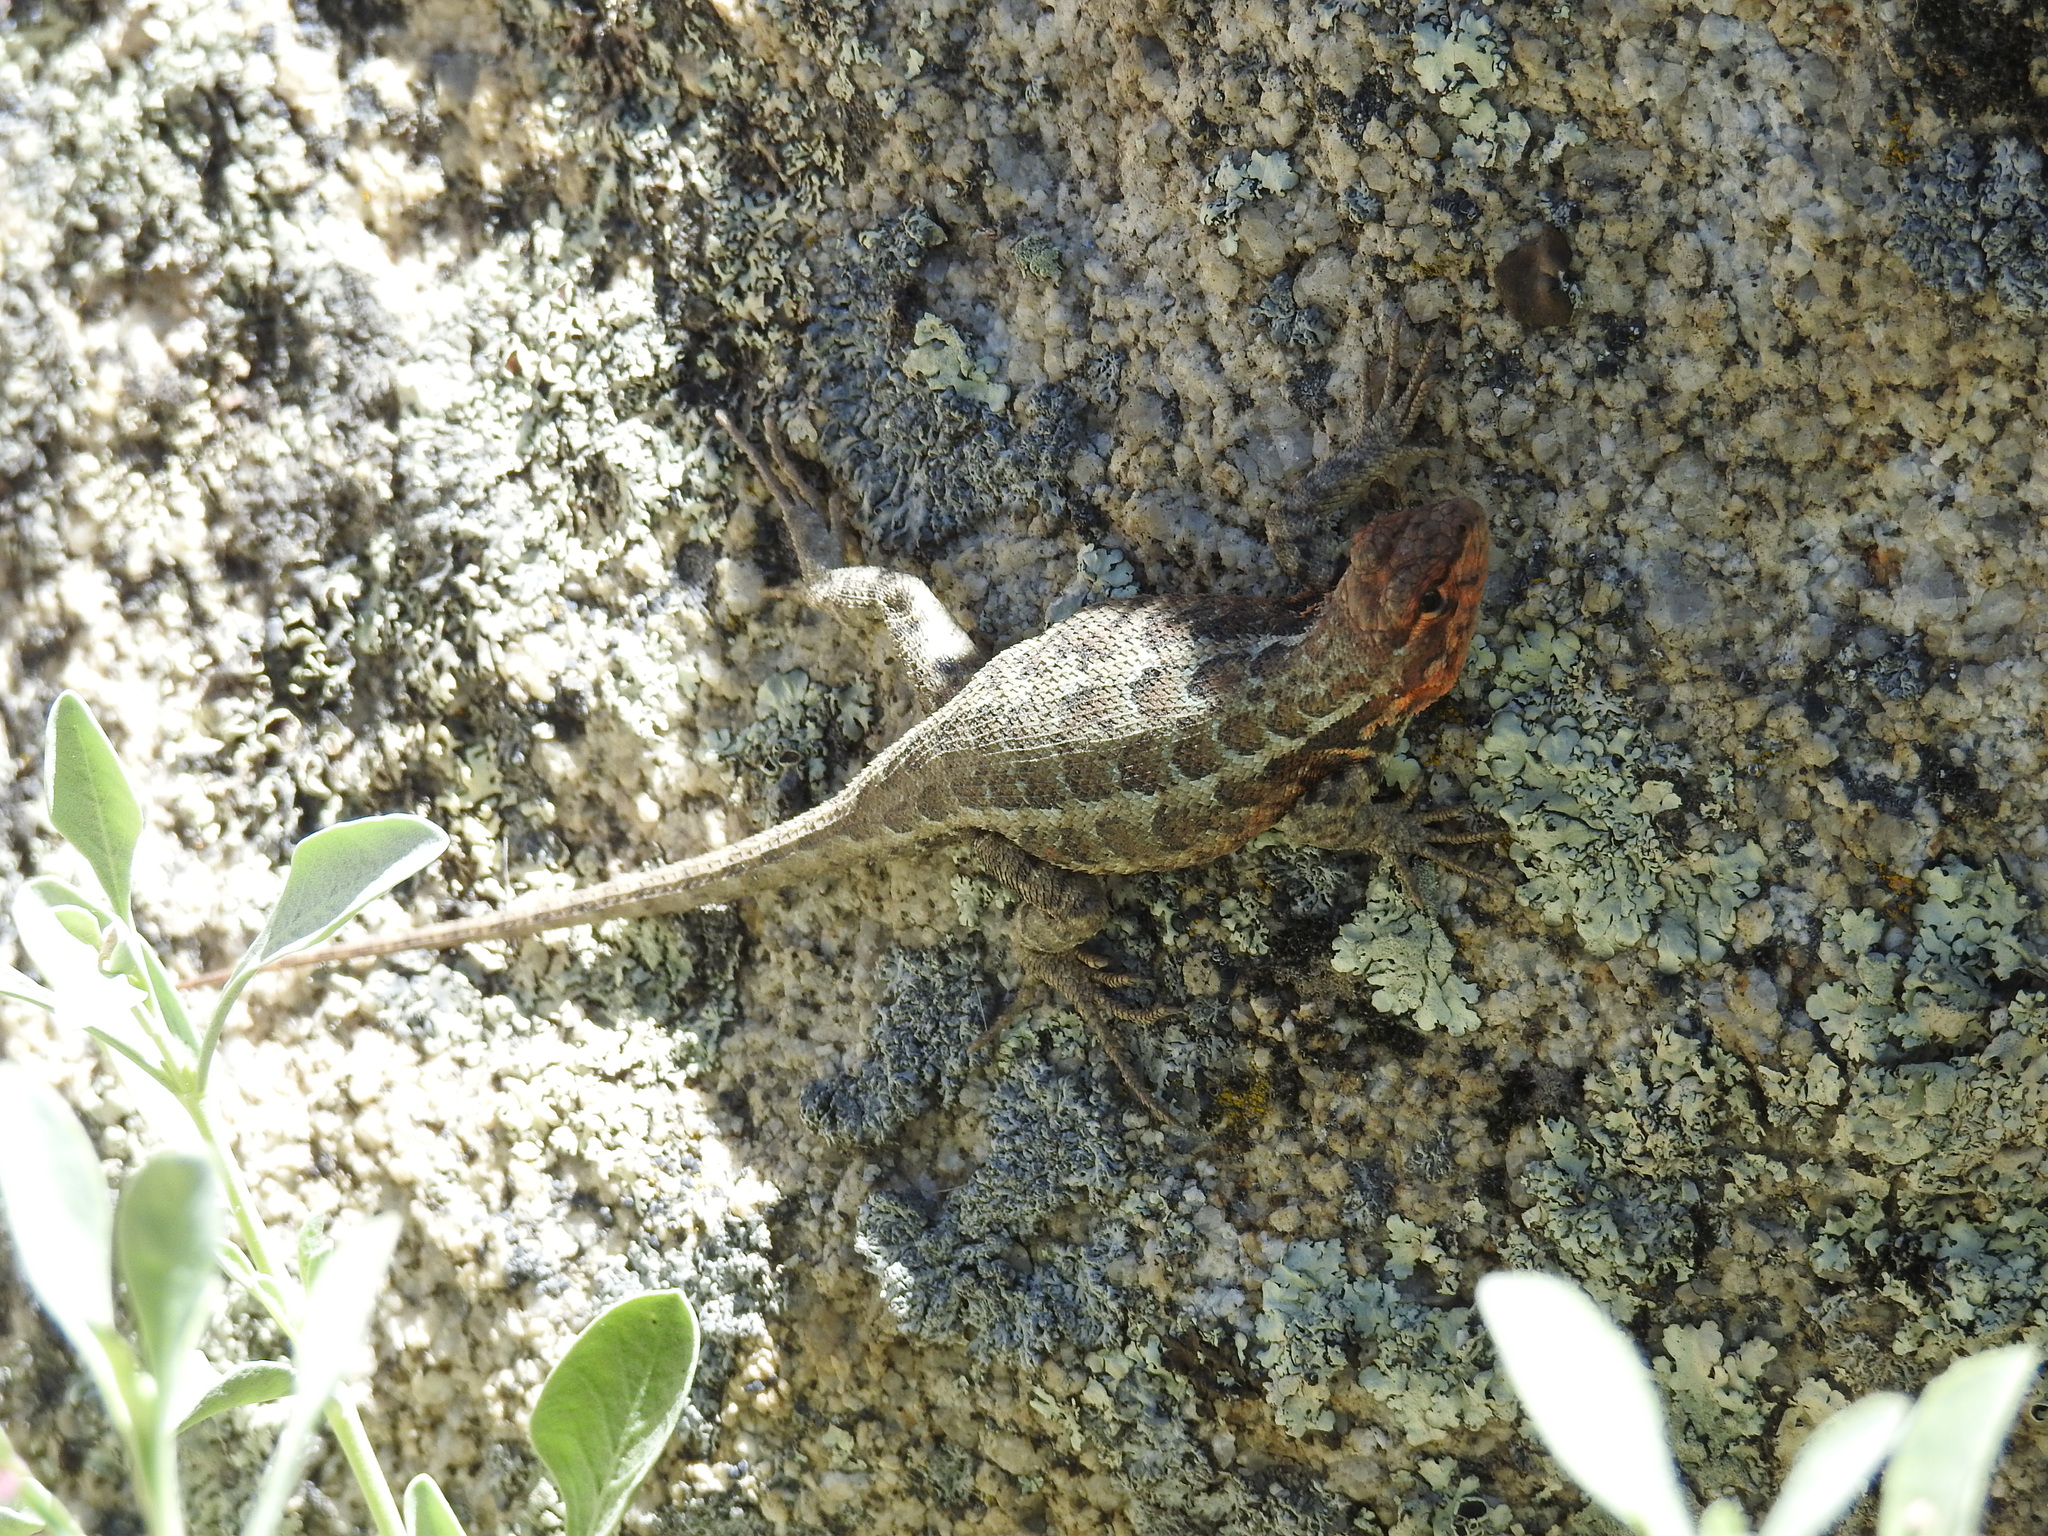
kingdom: Animalia
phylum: Chordata
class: Squamata
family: Phrynosomatidae
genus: Sceloporus
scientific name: Sceloporus graciosus
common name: Sagebrush lizard
